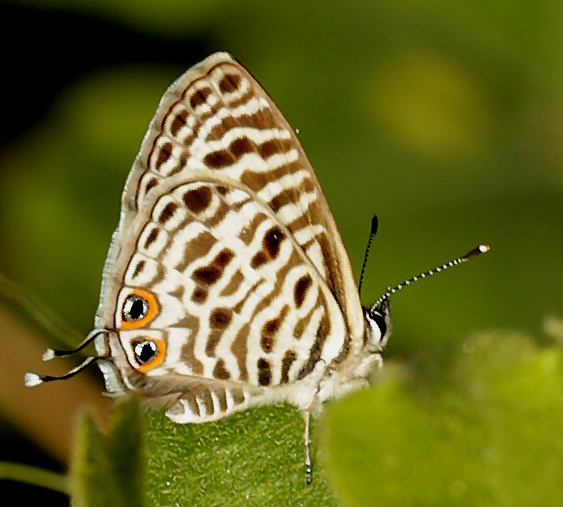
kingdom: Animalia
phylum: Arthropoda
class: Insecta
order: Lepidoptera
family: Lycaenidae
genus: Leptotes
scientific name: Leptotes
